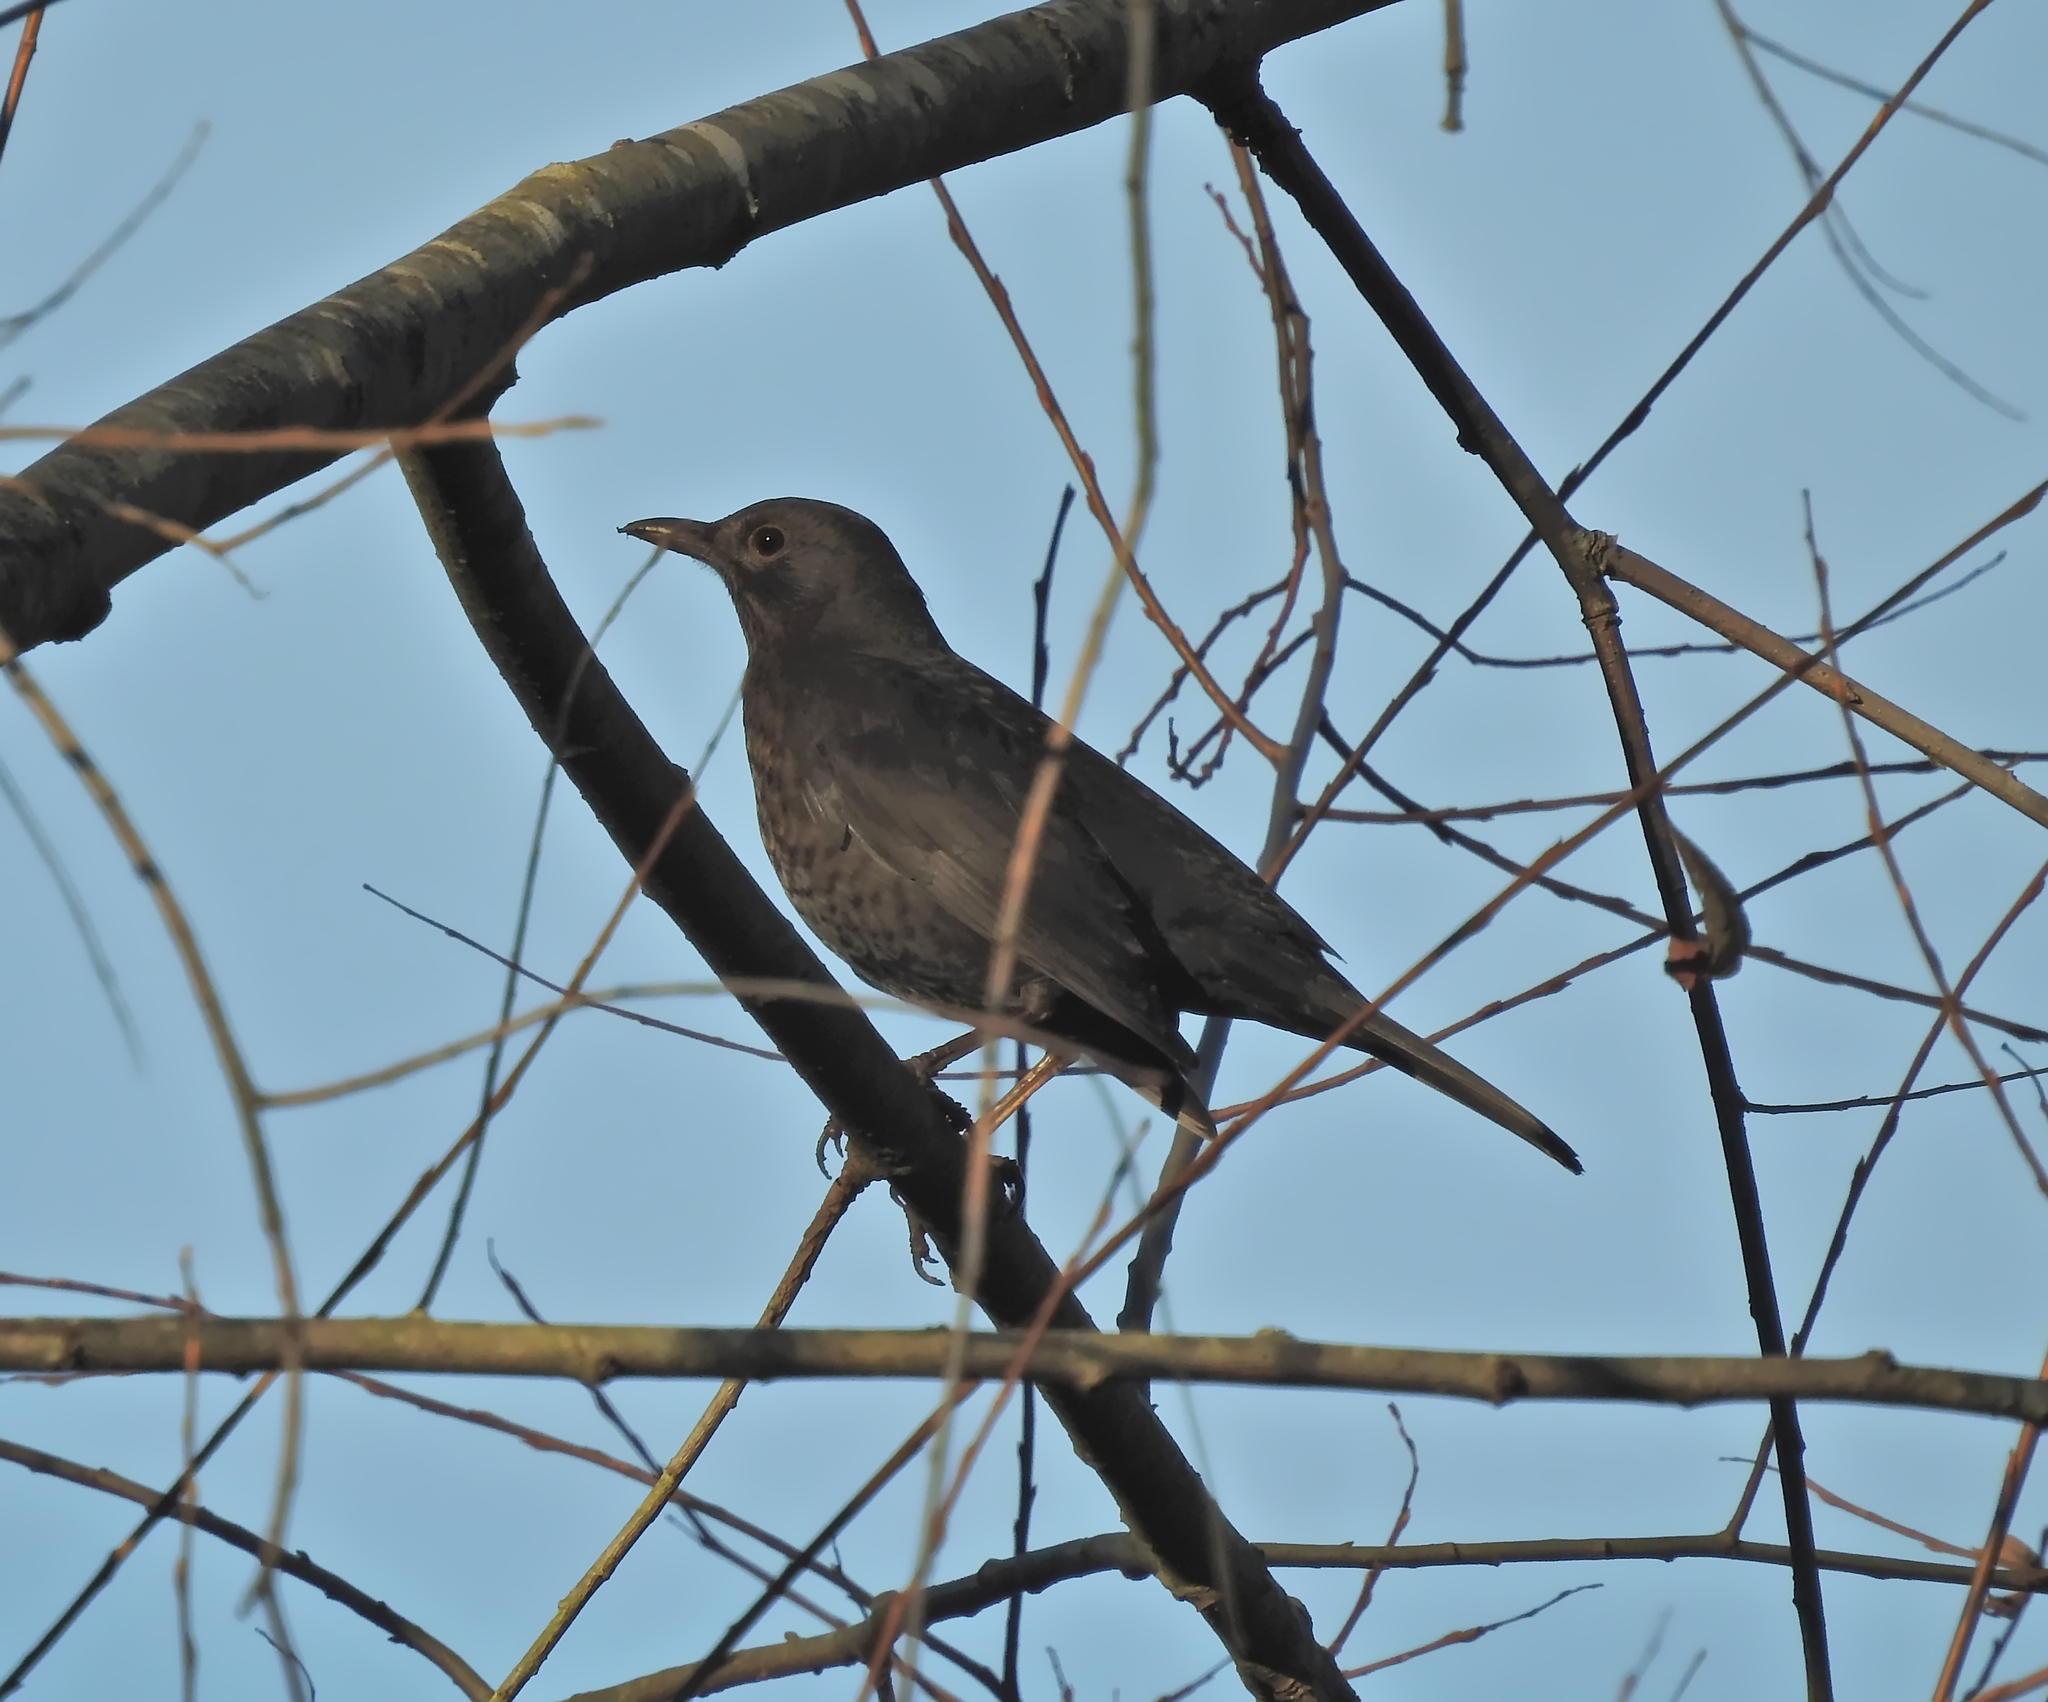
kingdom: Animalia
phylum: Chordata
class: Aves
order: Passeriformes
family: Turdidae
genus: Turdus
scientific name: Turdus merula
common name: Common blackbird
